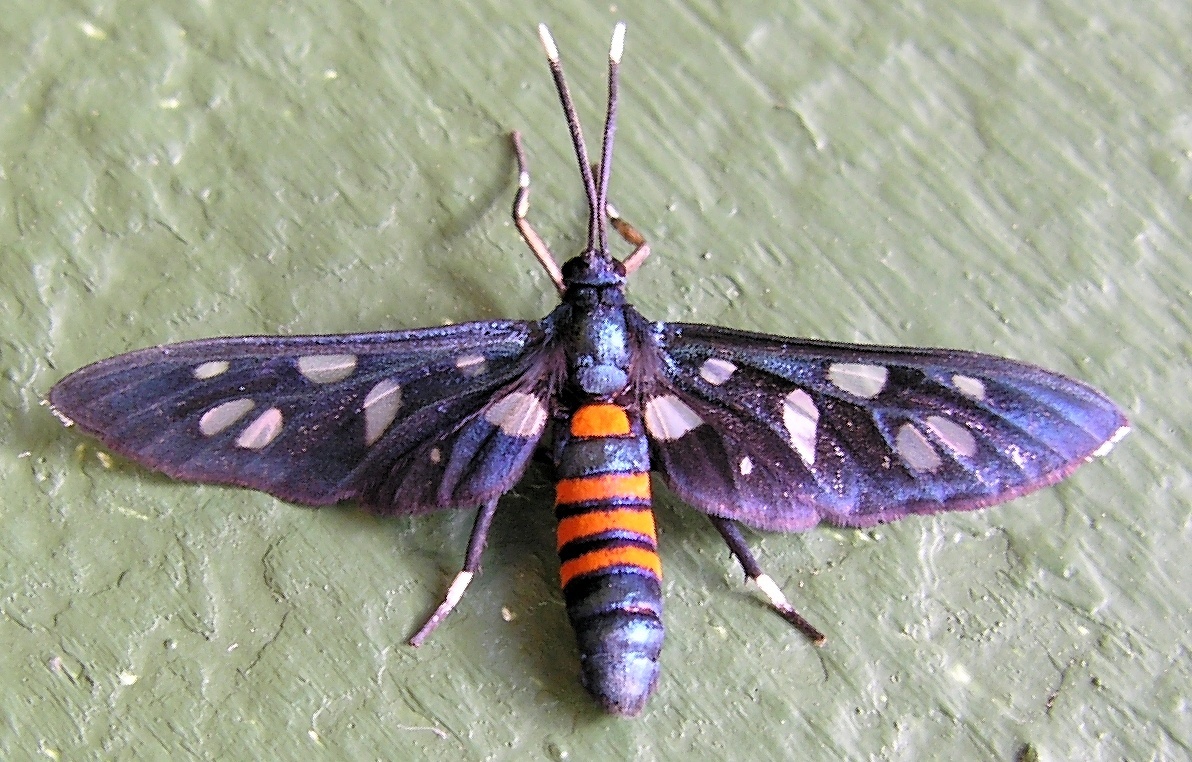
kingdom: Animalia
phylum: Arthropoda
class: Insecta
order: Lepidoptera
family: Erebidae
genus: Amata
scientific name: Amata schellhorni
